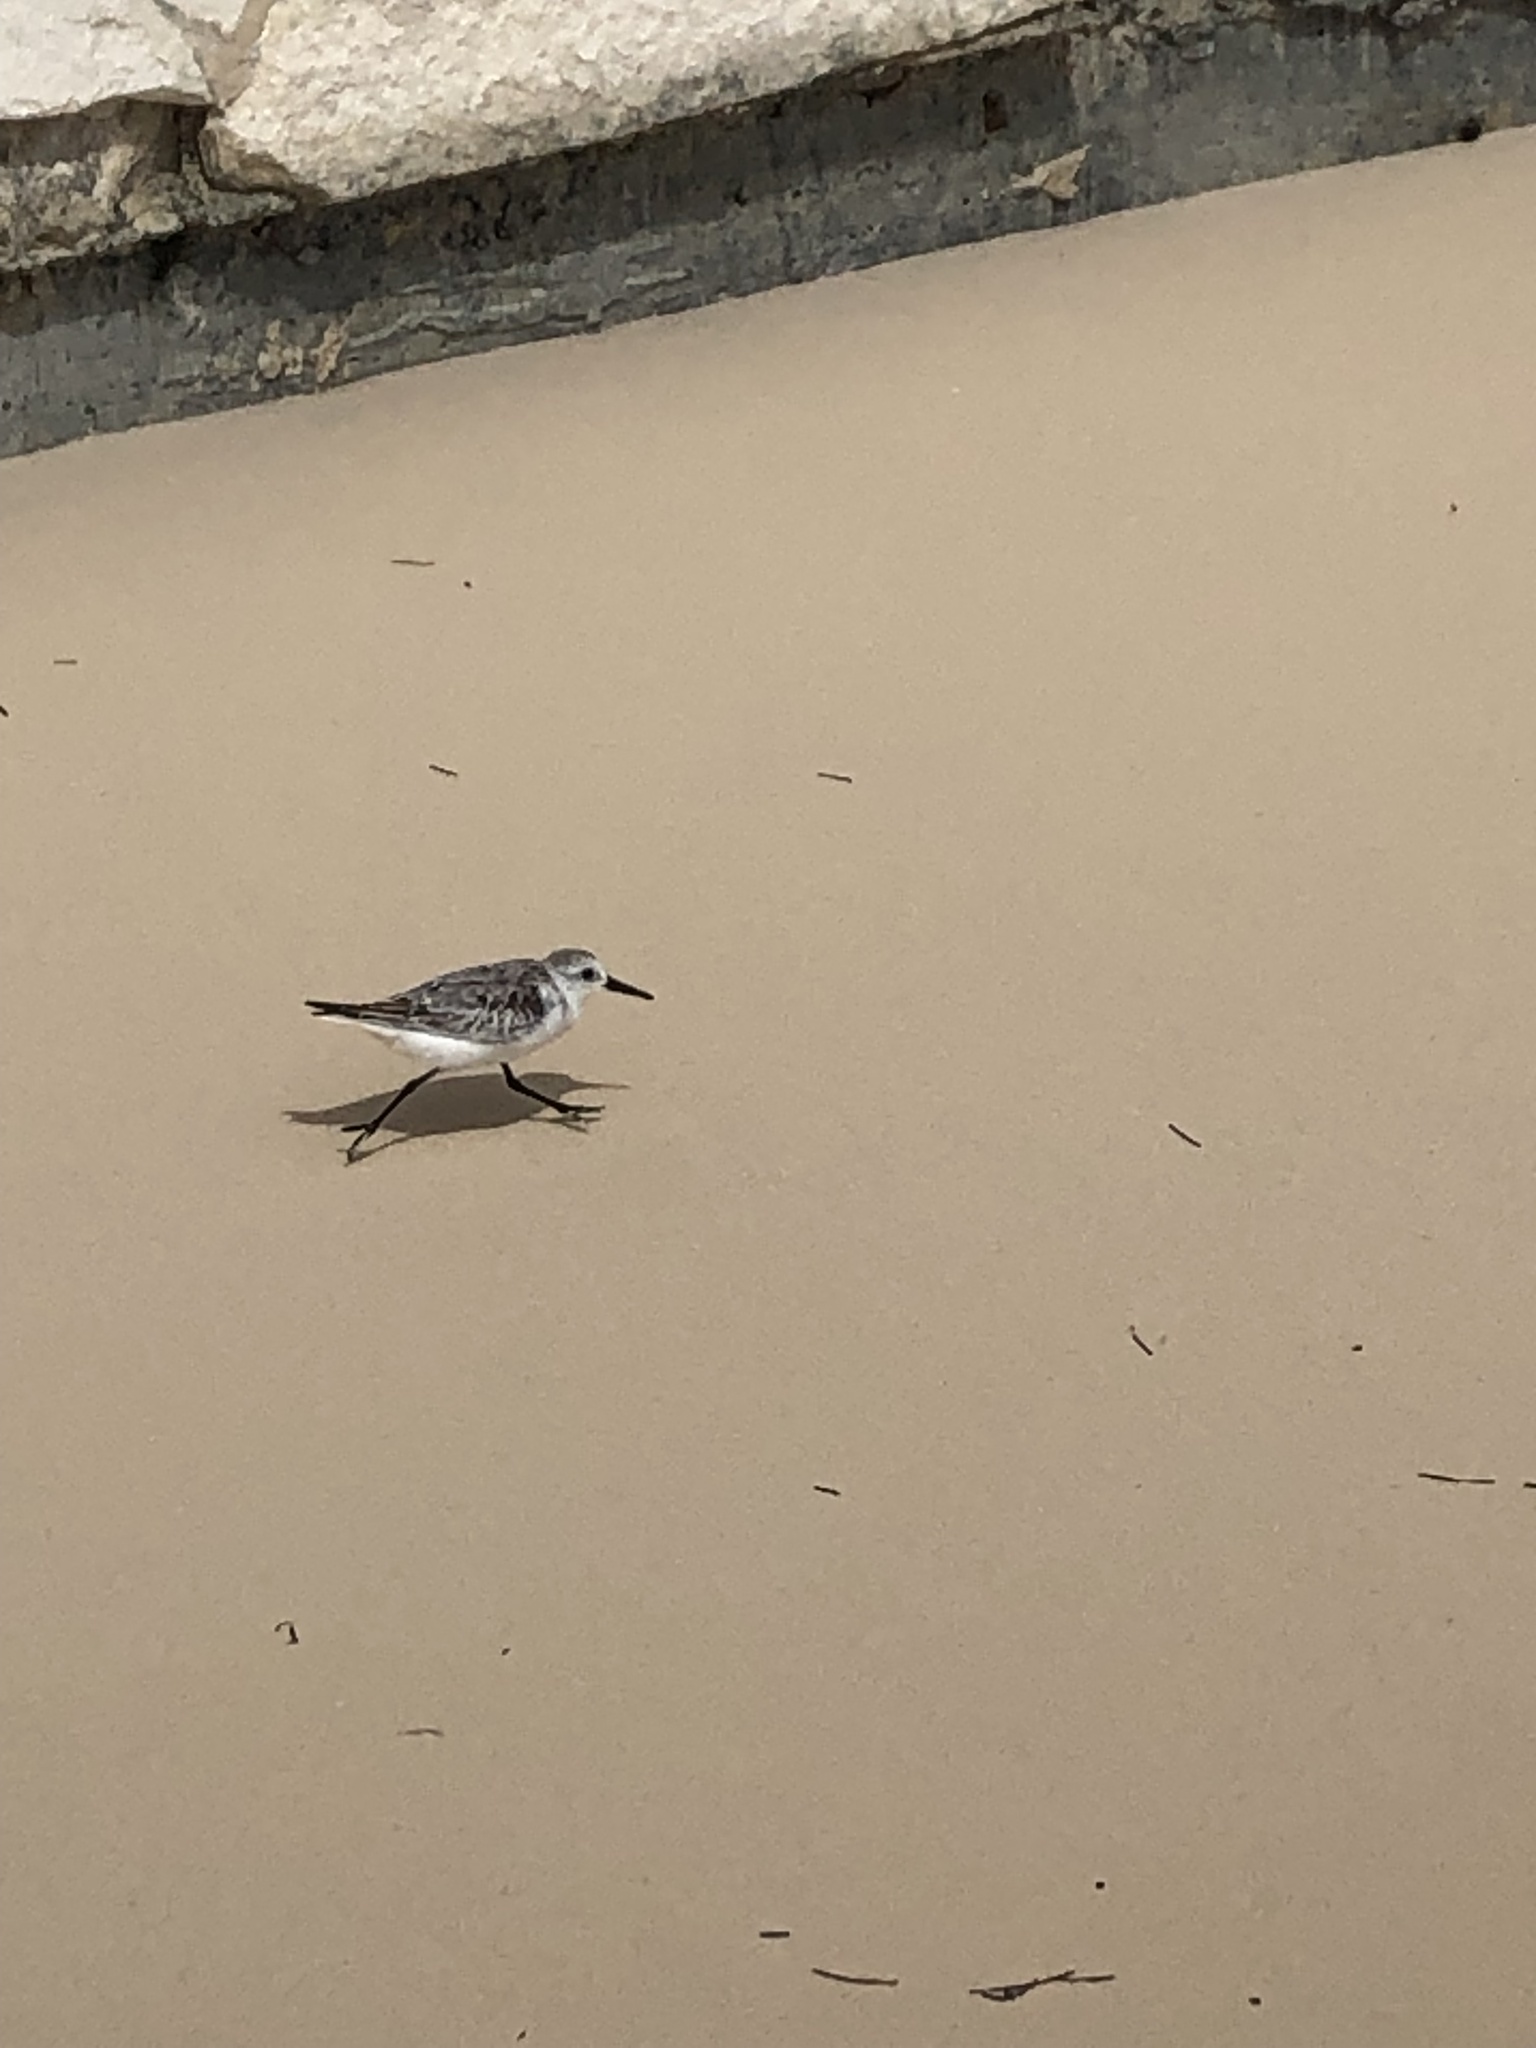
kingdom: Animalia
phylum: Chordata
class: Aves
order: Charadriiformes
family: Scolopacidae
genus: Calidris
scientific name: Calidris alba
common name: Sanderling
